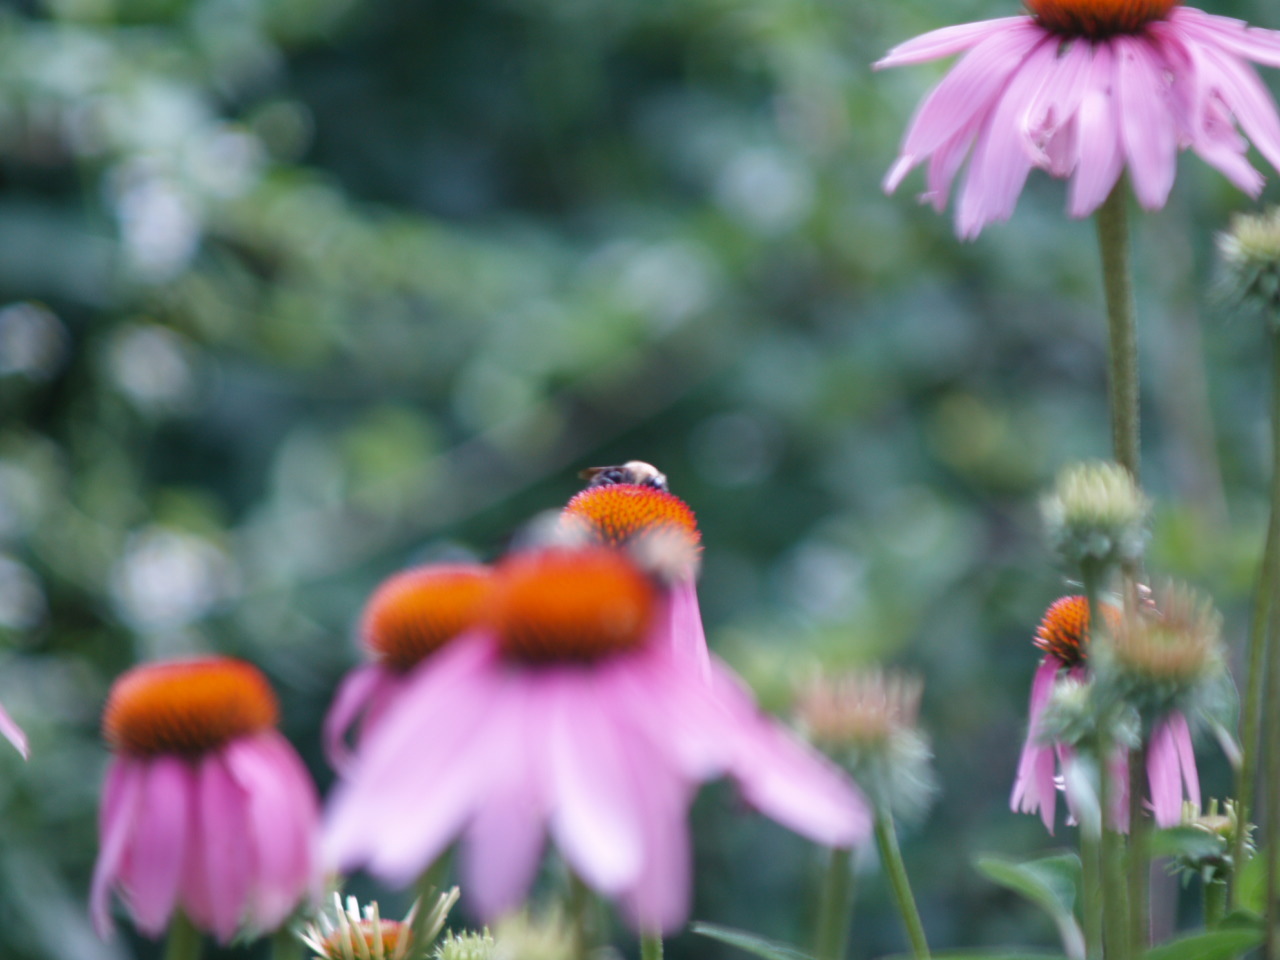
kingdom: Animalia
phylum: Arthropoda
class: Insecta
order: Hymenoptera
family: Apidae
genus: Bombus
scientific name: Bombus citrinus
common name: Lemon cuckoo bumble bee
